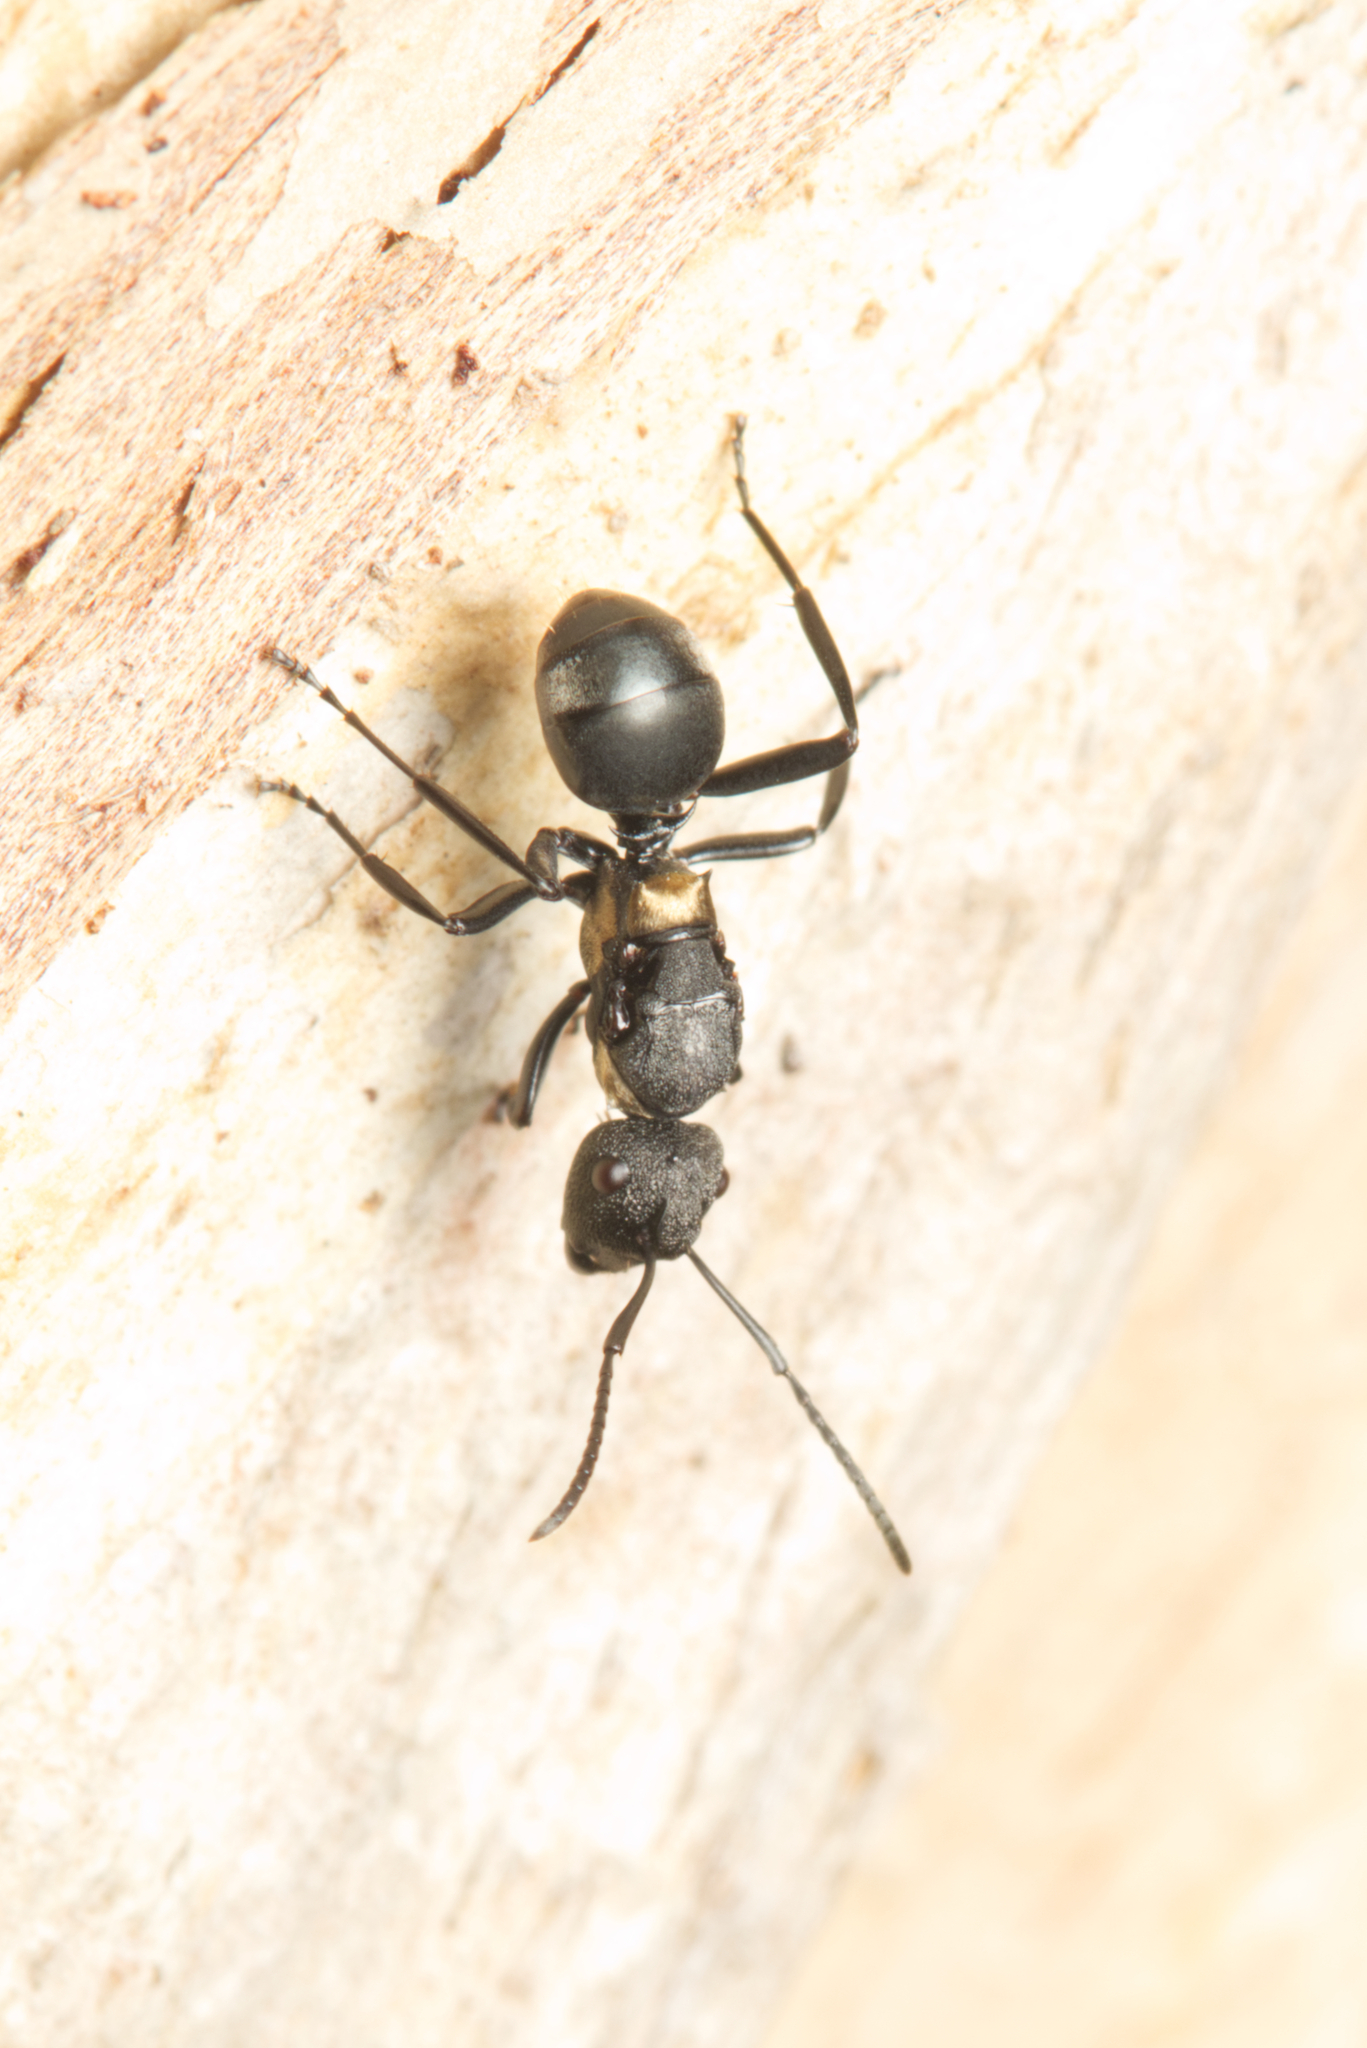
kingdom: Animalia
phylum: Arthropoda
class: Insecta
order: Hymenoptera
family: Formicidae
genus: Polyrhachis
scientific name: Polyrhachis machaon
